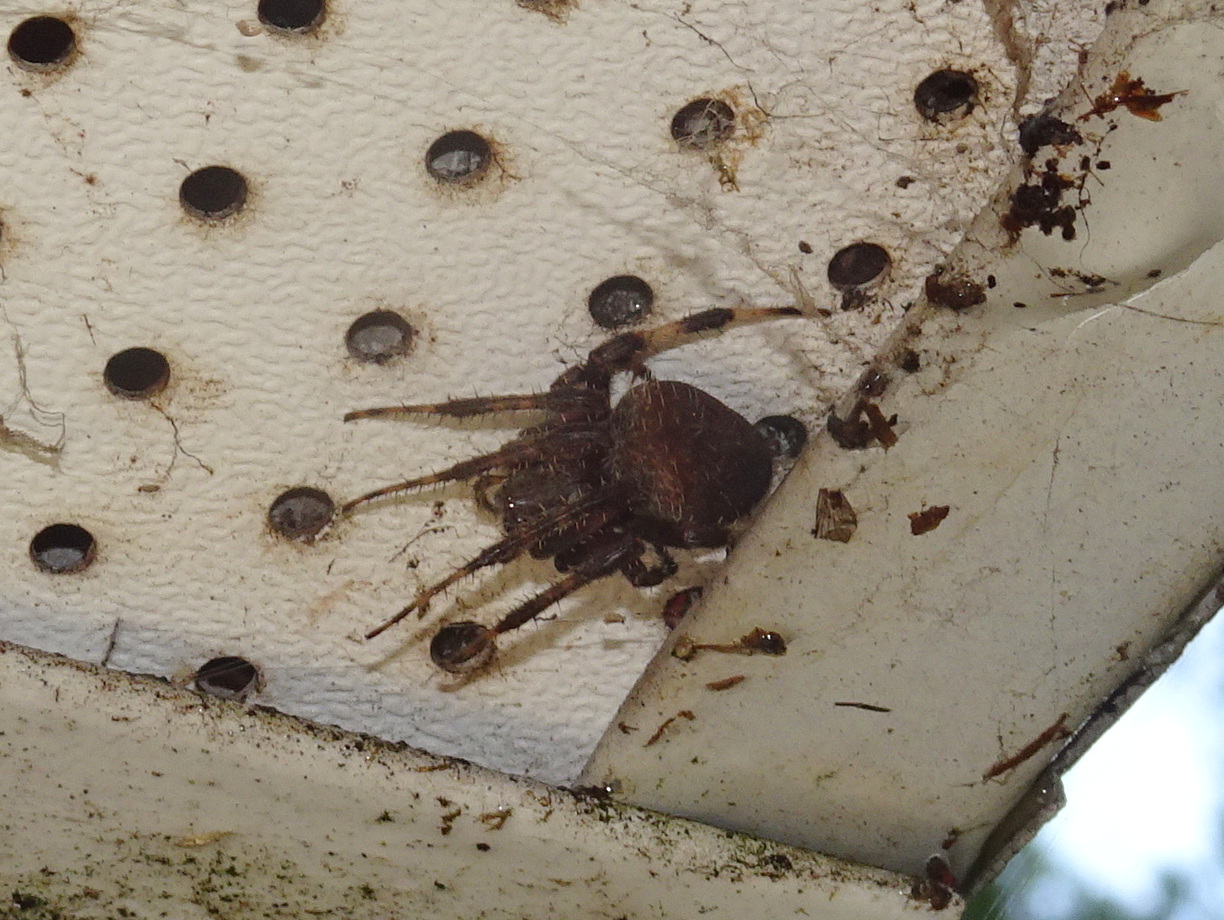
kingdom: Animalia
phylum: Arthropoda
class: Arachnida
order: Araneae
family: Araneidae
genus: Neoscona
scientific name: Neoscona crucifera
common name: Spotted orbweaver
